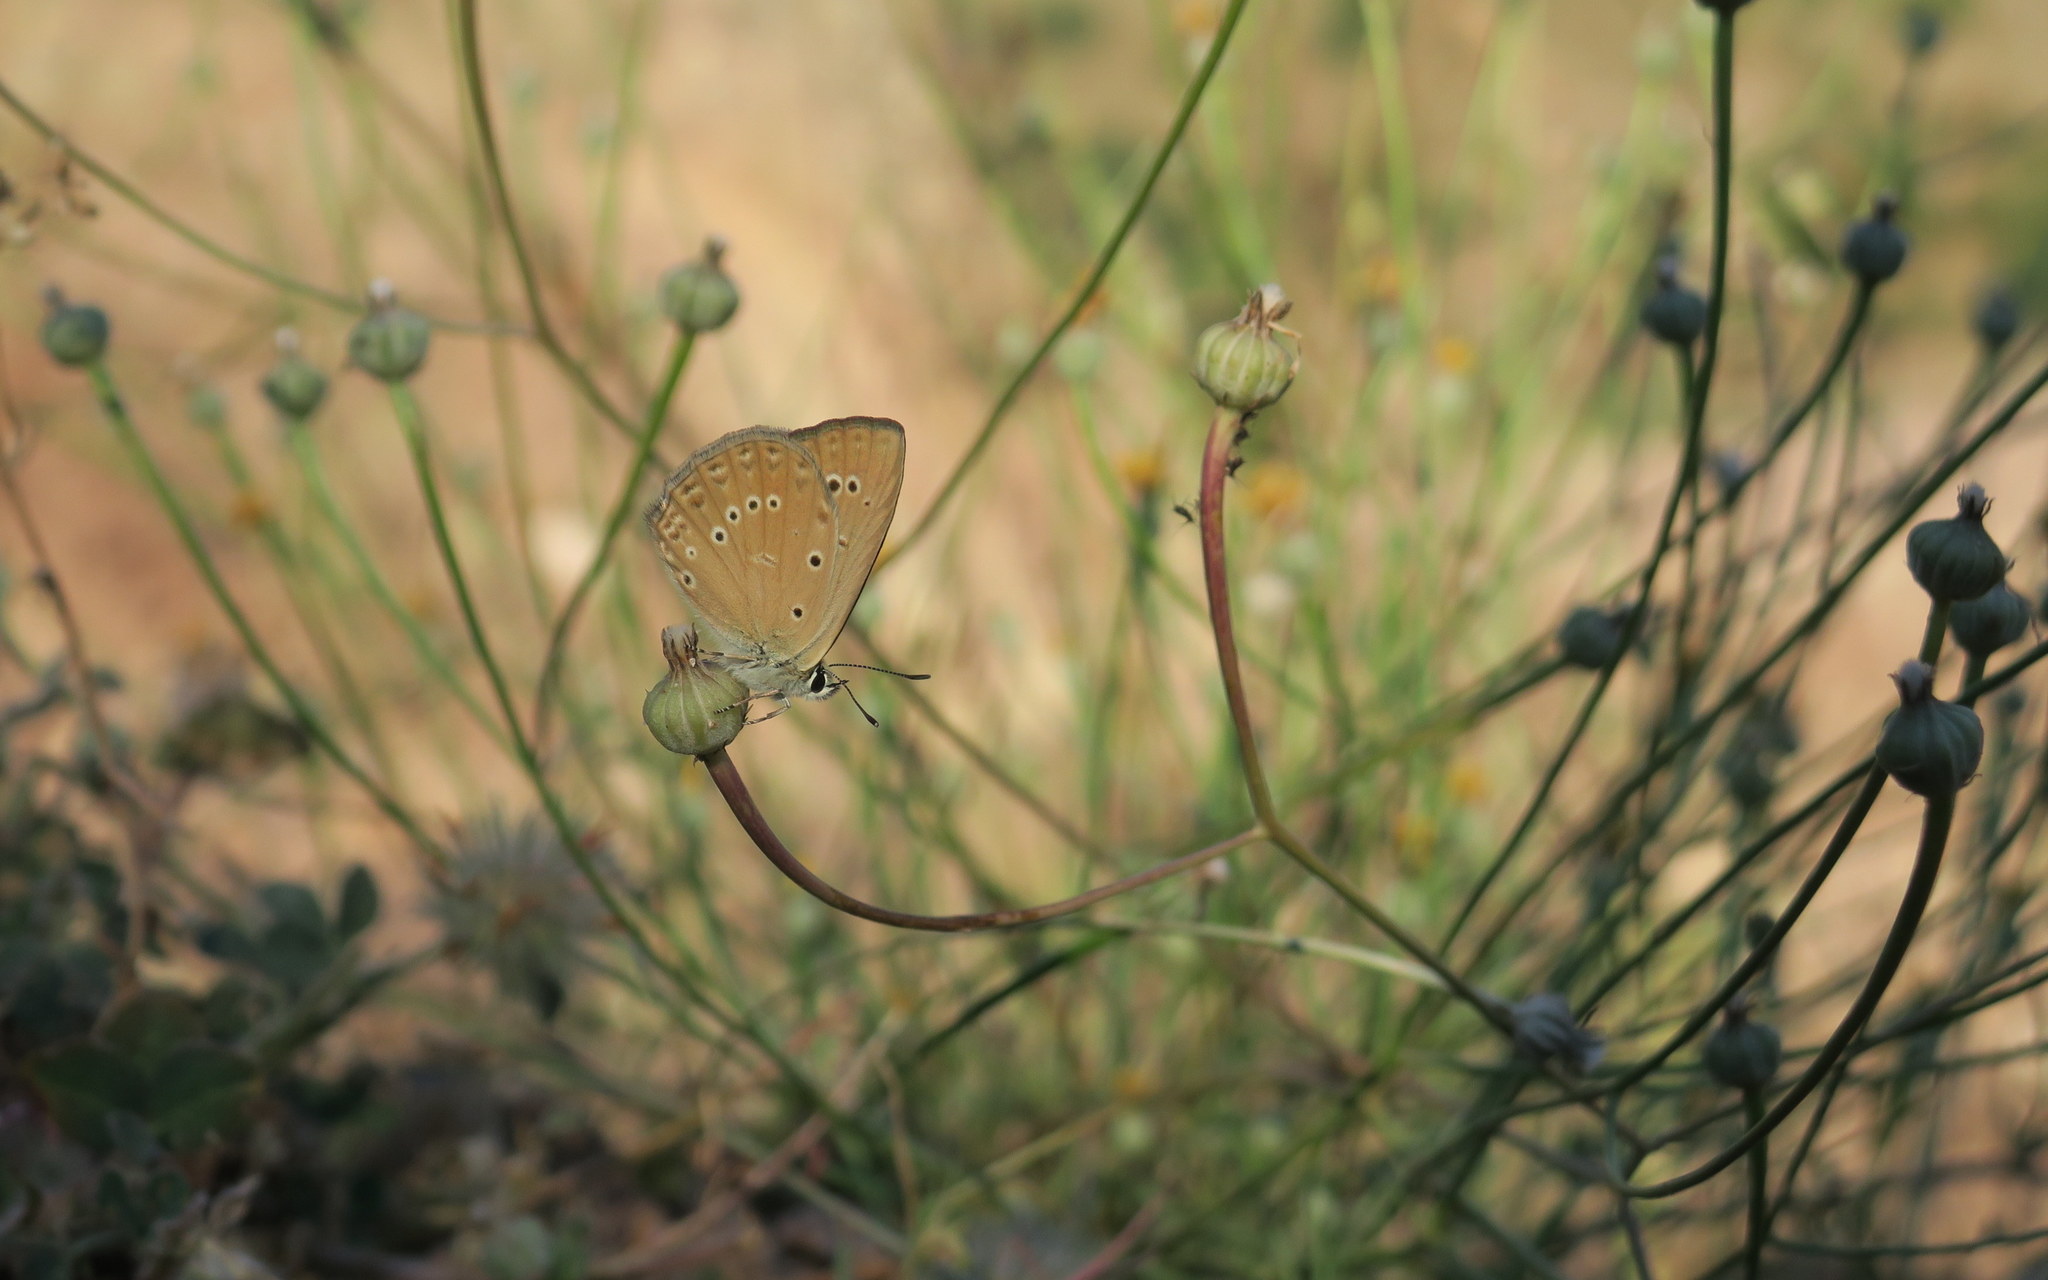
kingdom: Animalia
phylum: Arthropoda
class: Insecta
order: Lepidoptera
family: Lycaenidae
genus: Agrodiaetus
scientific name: Agrodiaetus admetus
